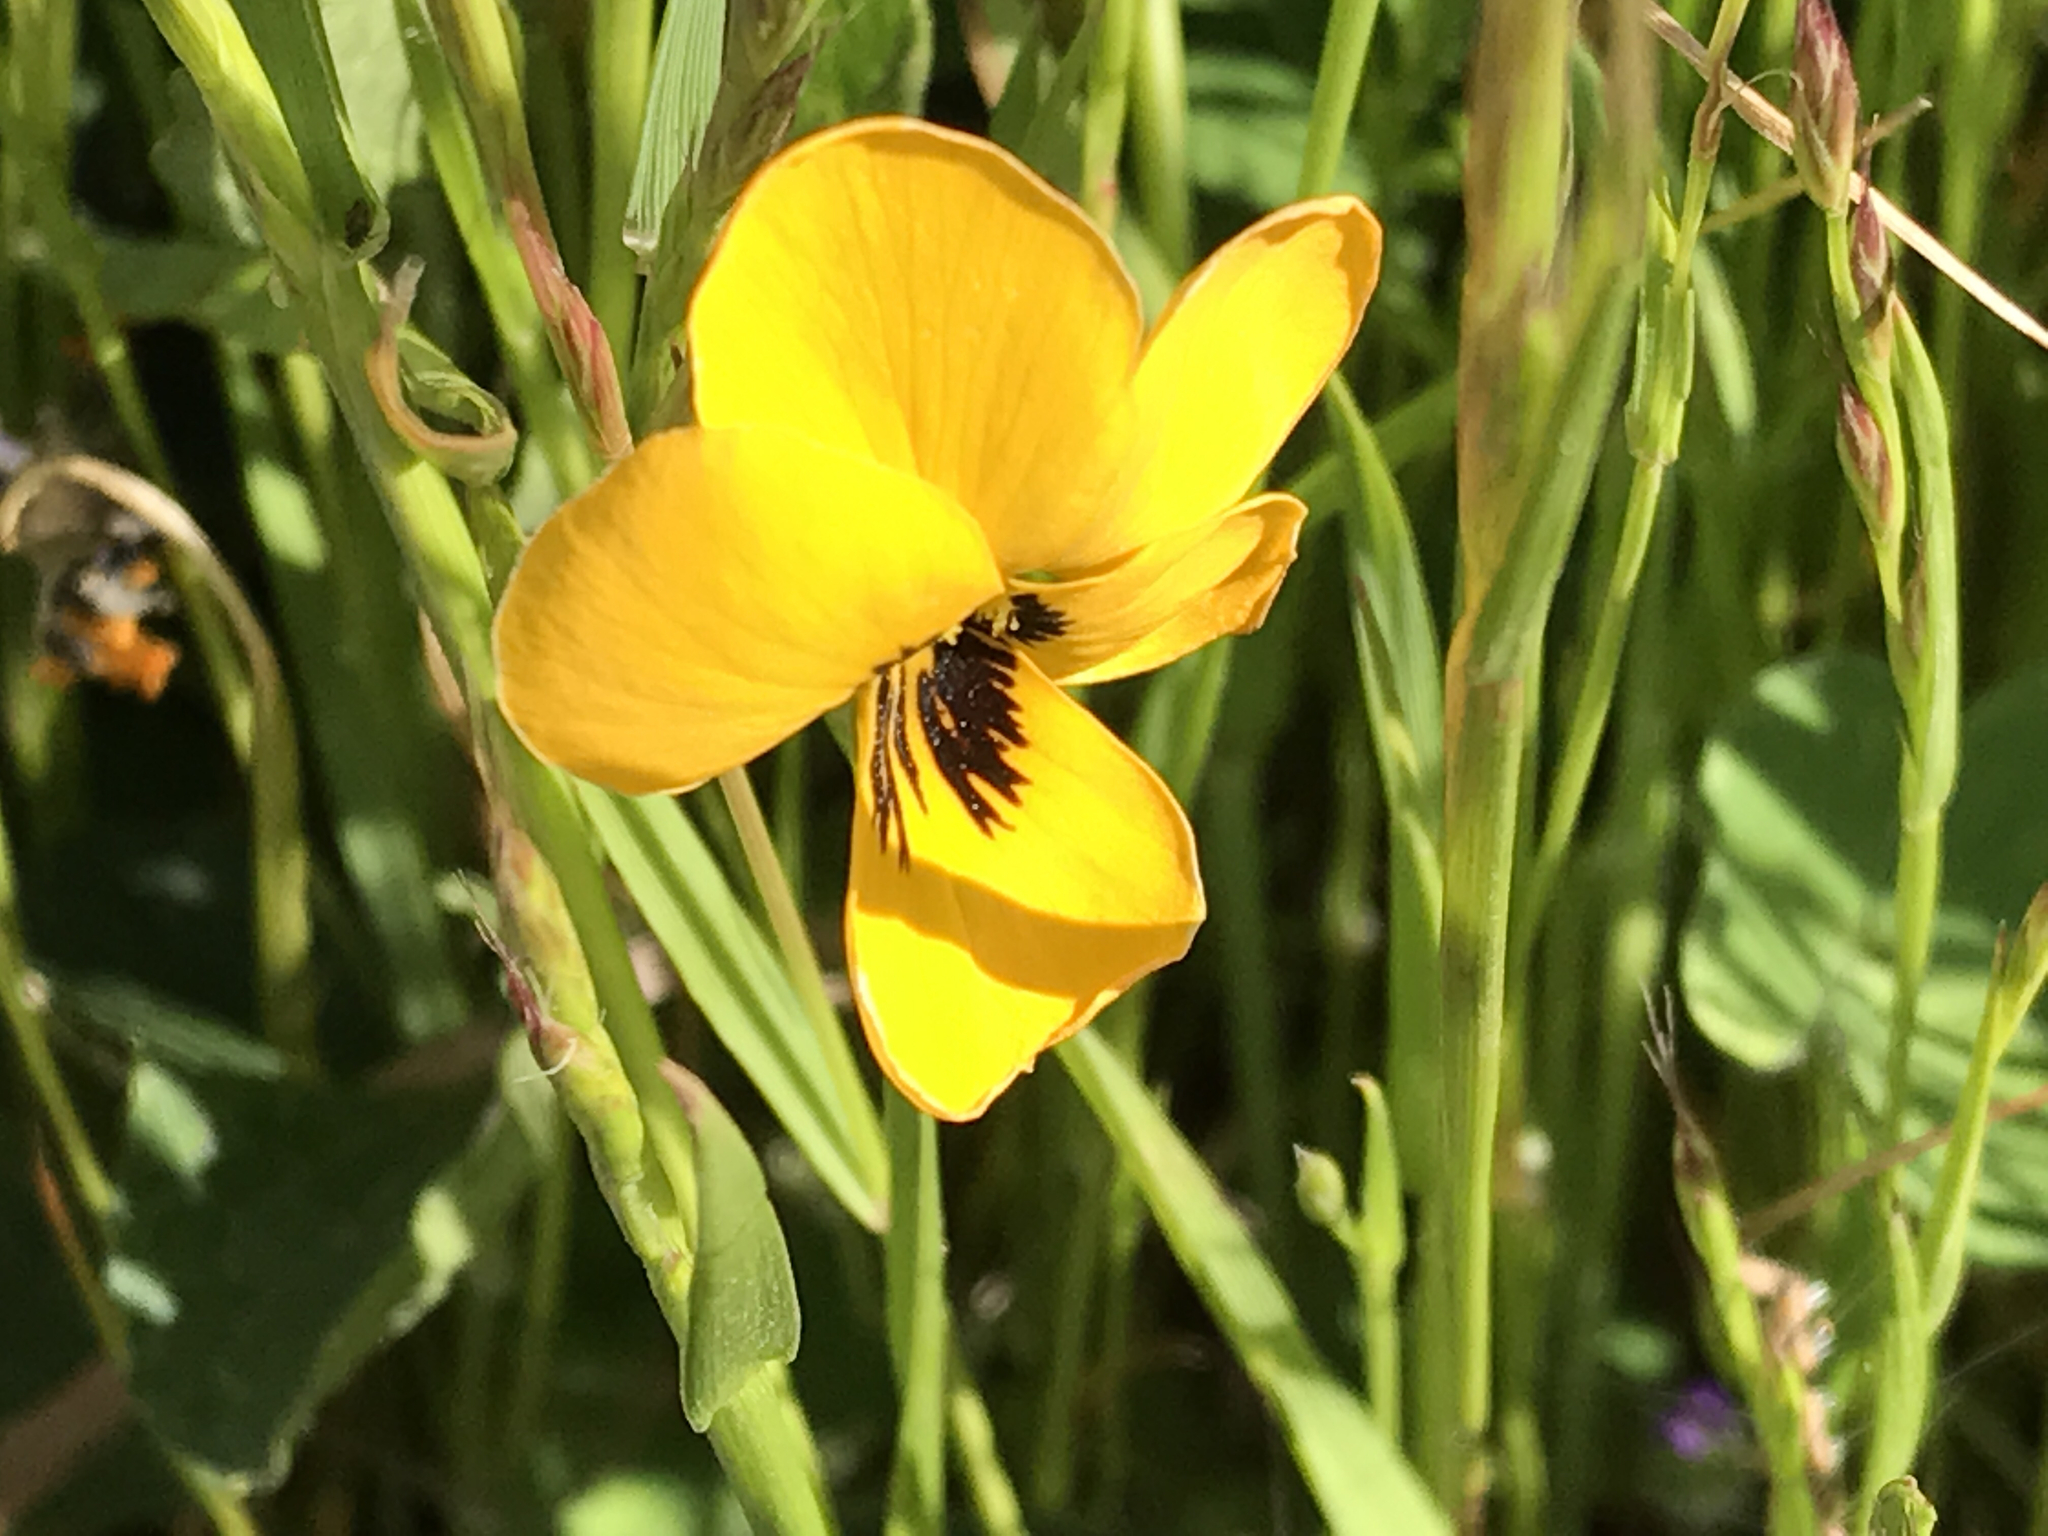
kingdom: Plantae
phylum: Tracheophyta
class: Magnoliopsida
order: Malpighiales
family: Violaceae
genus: Viola
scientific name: Viola pedunculata
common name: California golden violet
